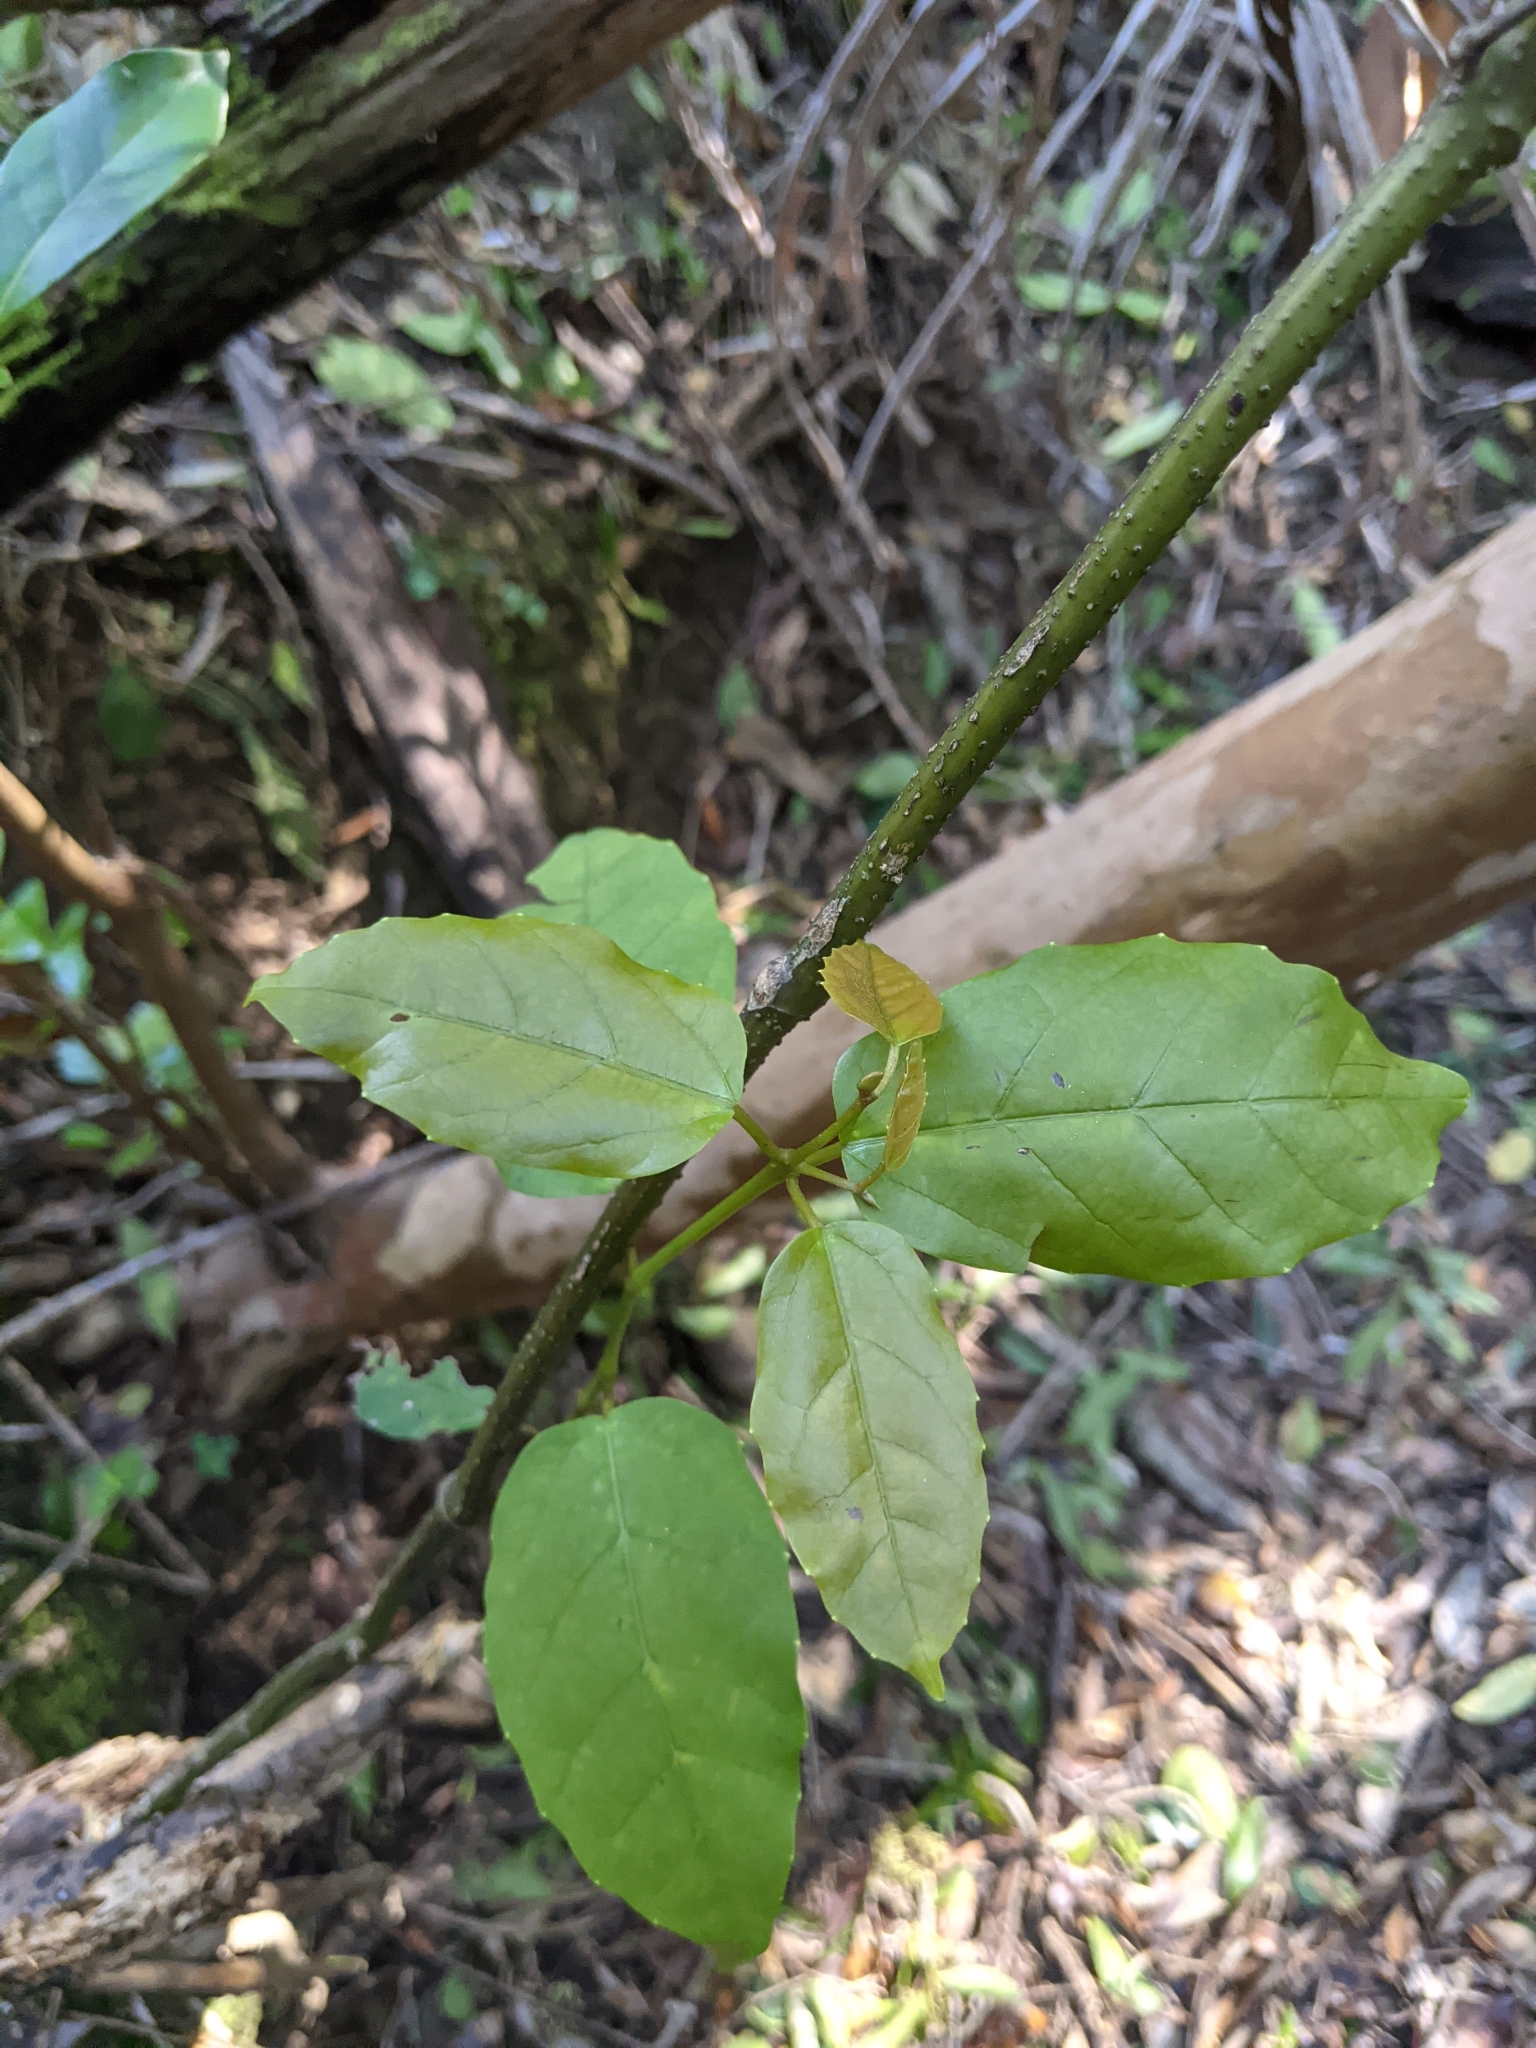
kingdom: Plantae
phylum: Tracheophyta
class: Magnoliopsida
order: Vitales
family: Vitaceae
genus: Cissus
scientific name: Cissus antarctica
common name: Kangaroo vine
